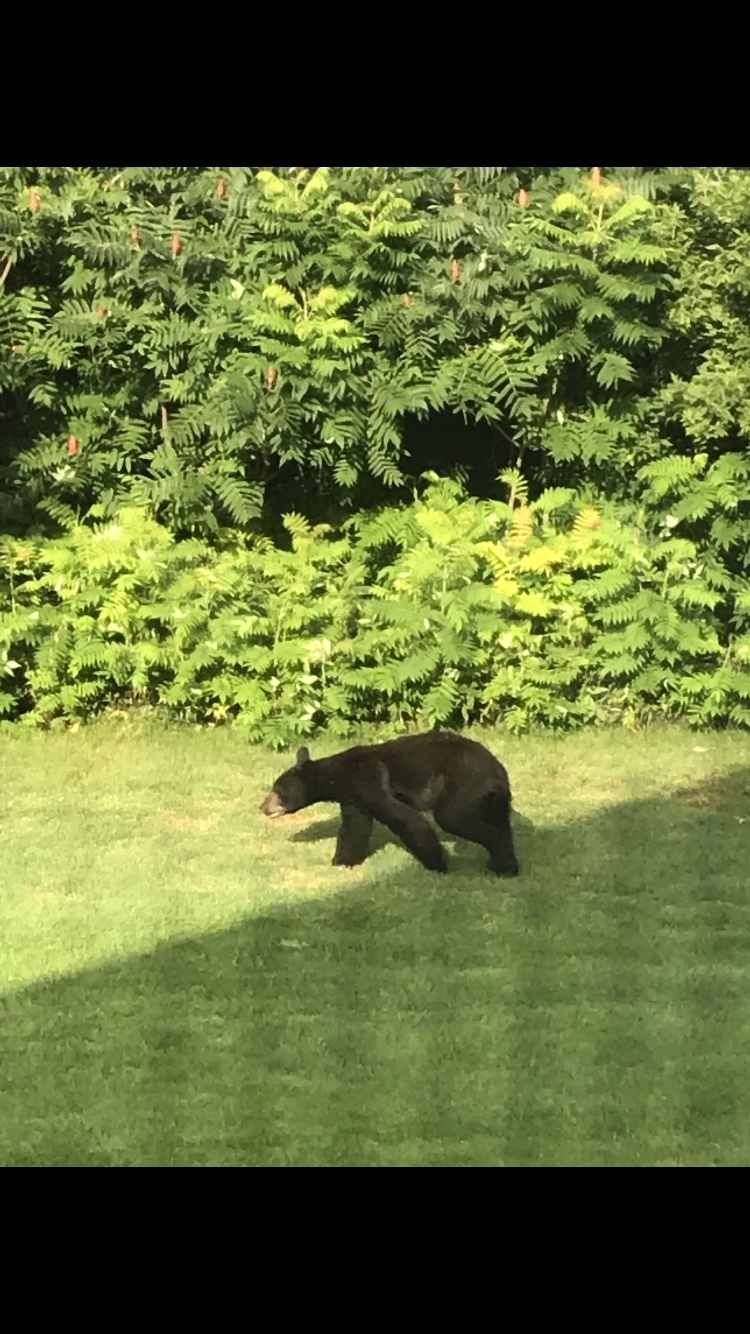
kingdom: Animalia
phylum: Chordata
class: Mammalia
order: Carnivora
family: Ursidae
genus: Ursus
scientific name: Ursus americanus
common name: American black bear
